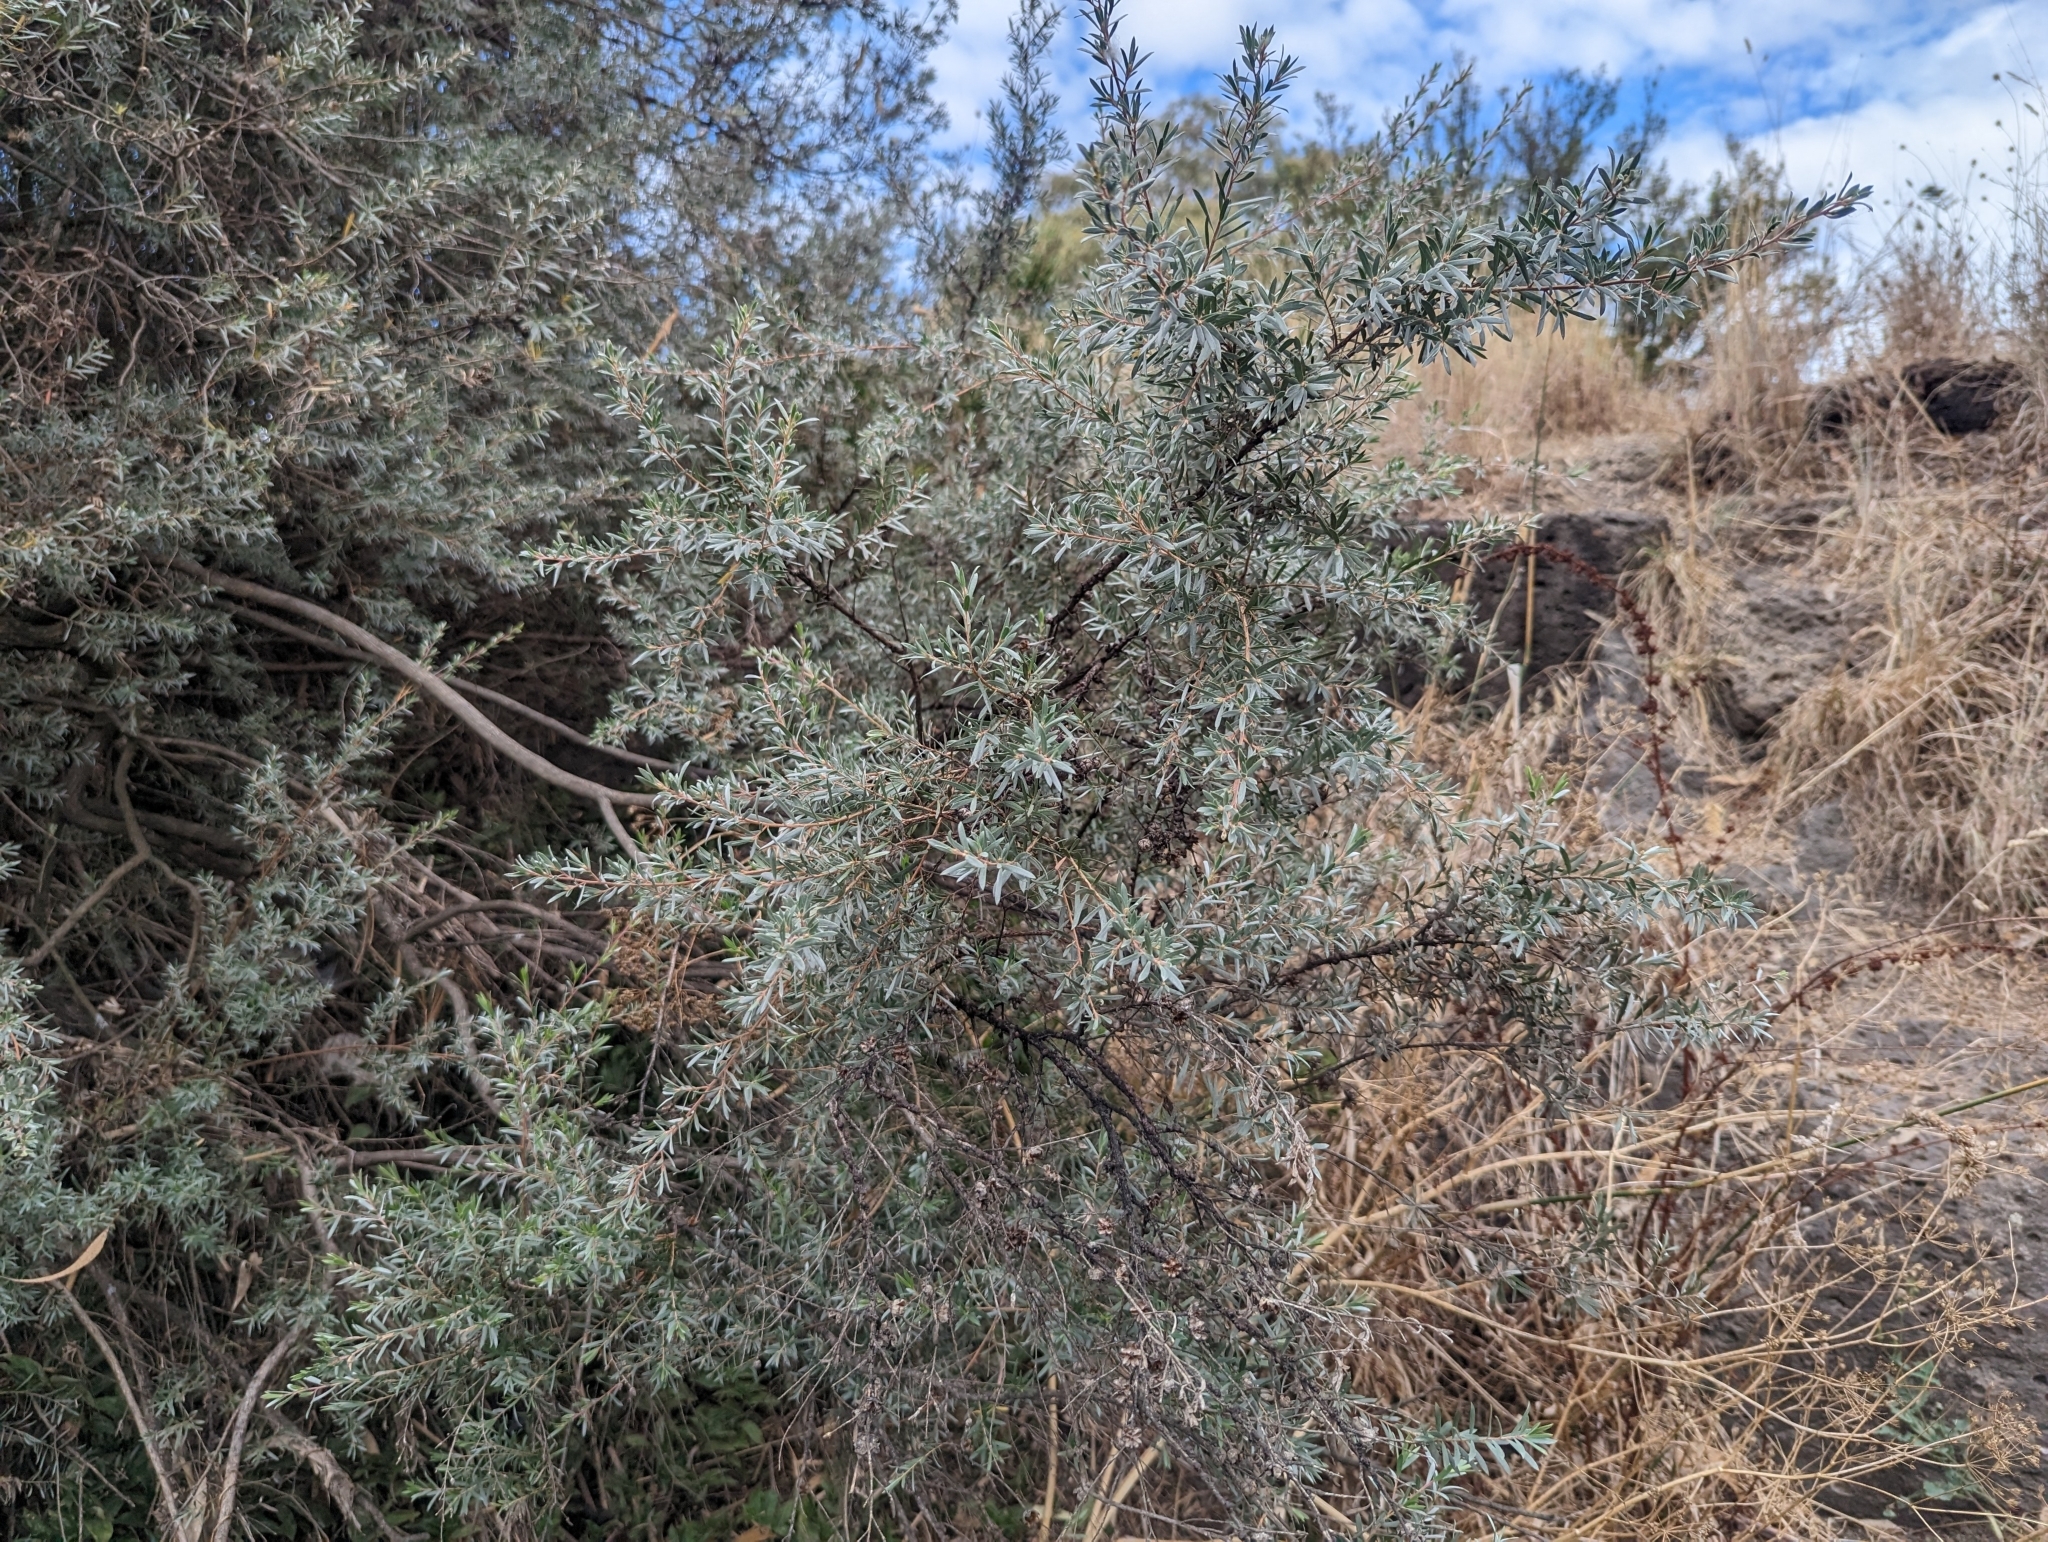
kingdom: Plantae
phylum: Tracheophyta
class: Magnoliopsida
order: Myrtales
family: Myrtaceae
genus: Leptospermum
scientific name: Leptospermum lanigerum
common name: Woolly tea-tree
